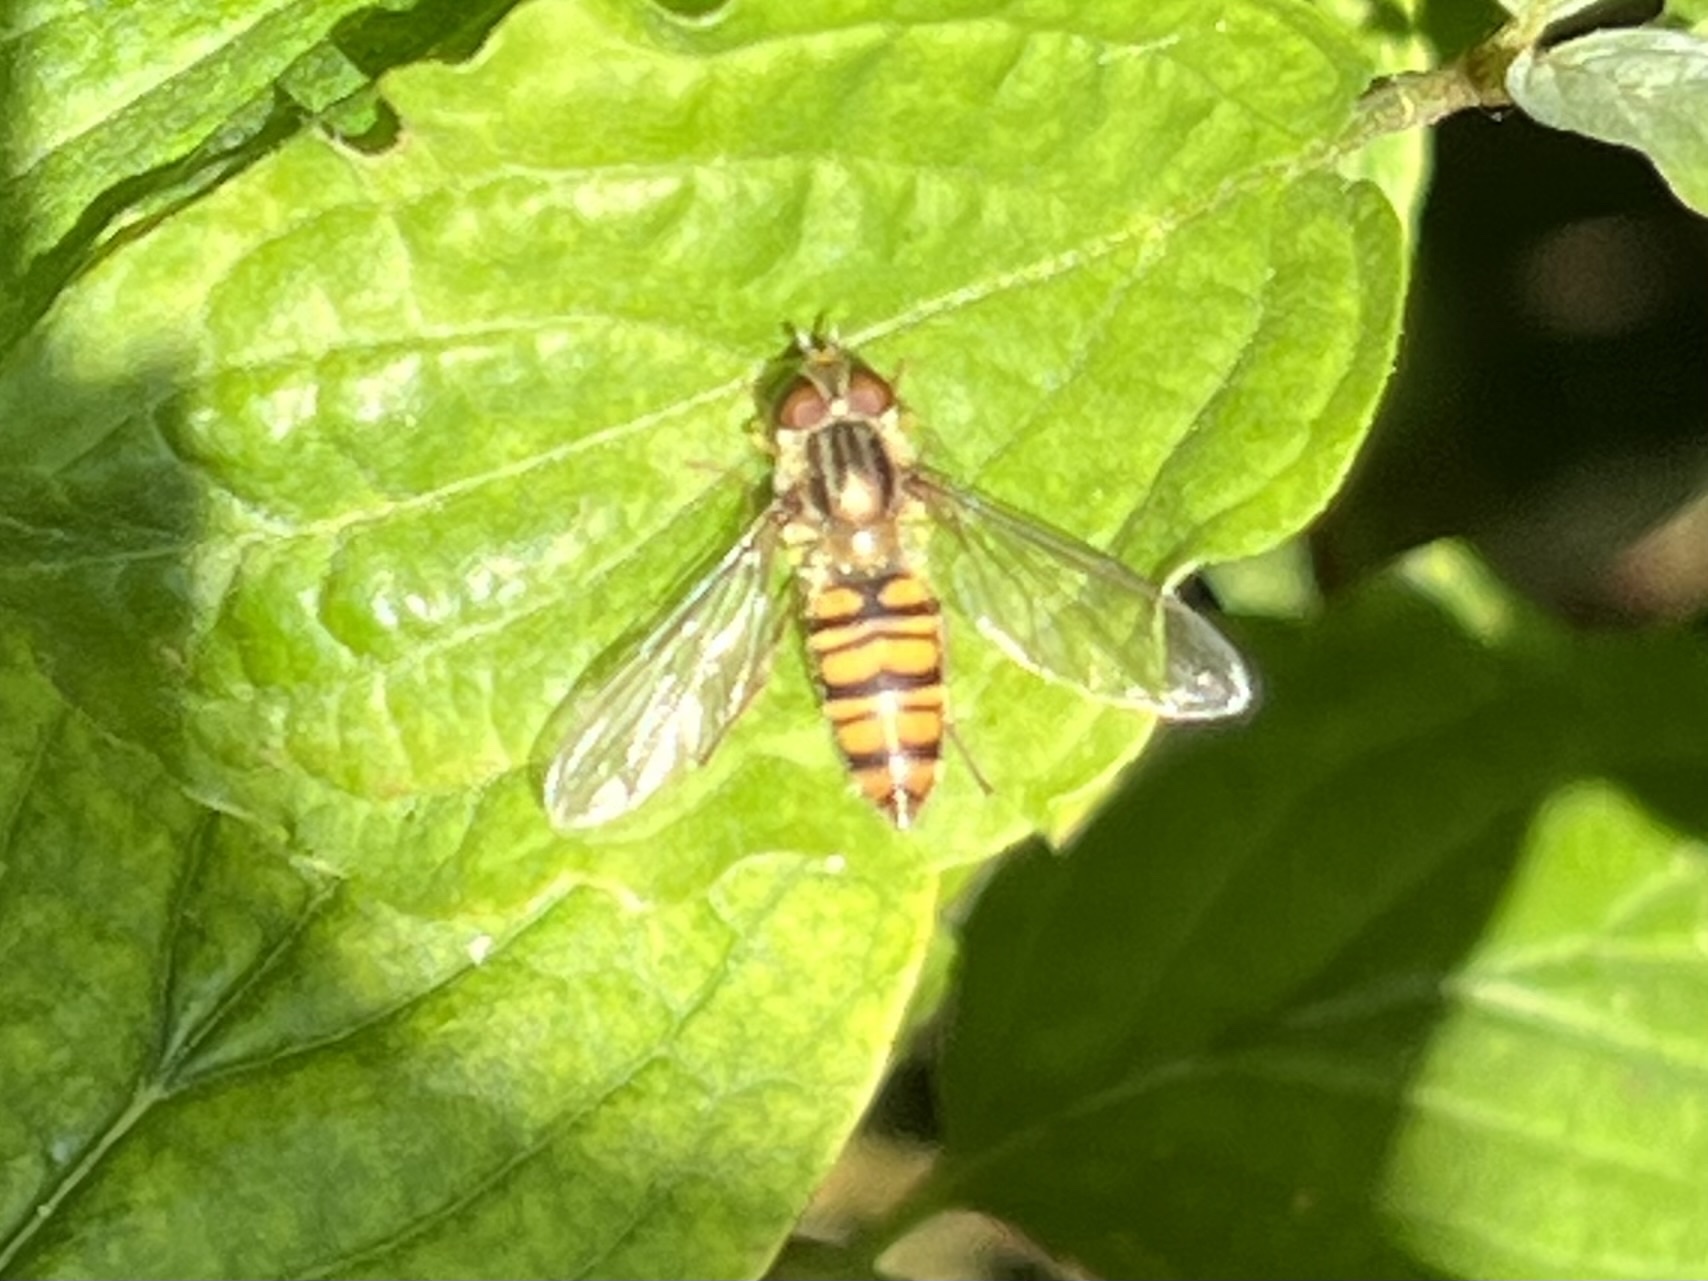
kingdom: Animalia
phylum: Arthropoda
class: Insecta
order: Diptera
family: Syrphidae
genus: Episyrphus
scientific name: Episyrphus balteatus
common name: Marmalade hoverfly
